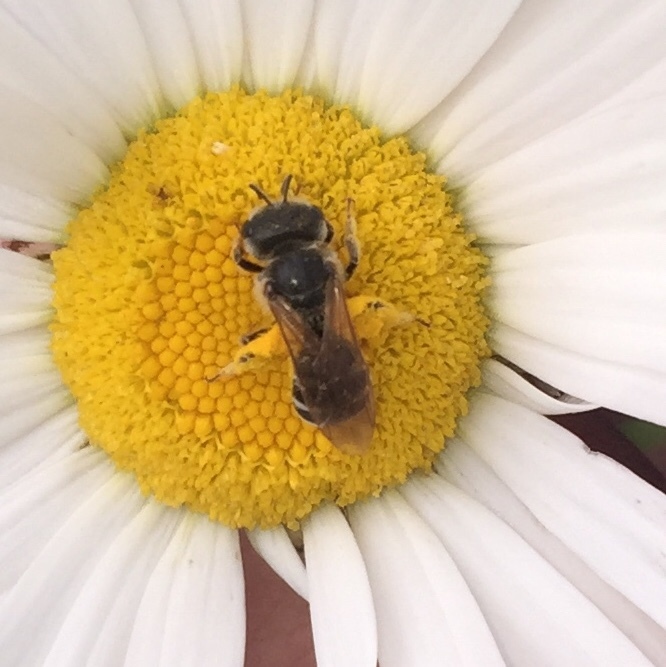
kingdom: Animalia
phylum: Arthropoda
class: Insecta
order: Hymenoptera
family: Halictidae
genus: Halictus
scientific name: Halictus ligatus
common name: Ligated furrow bee
